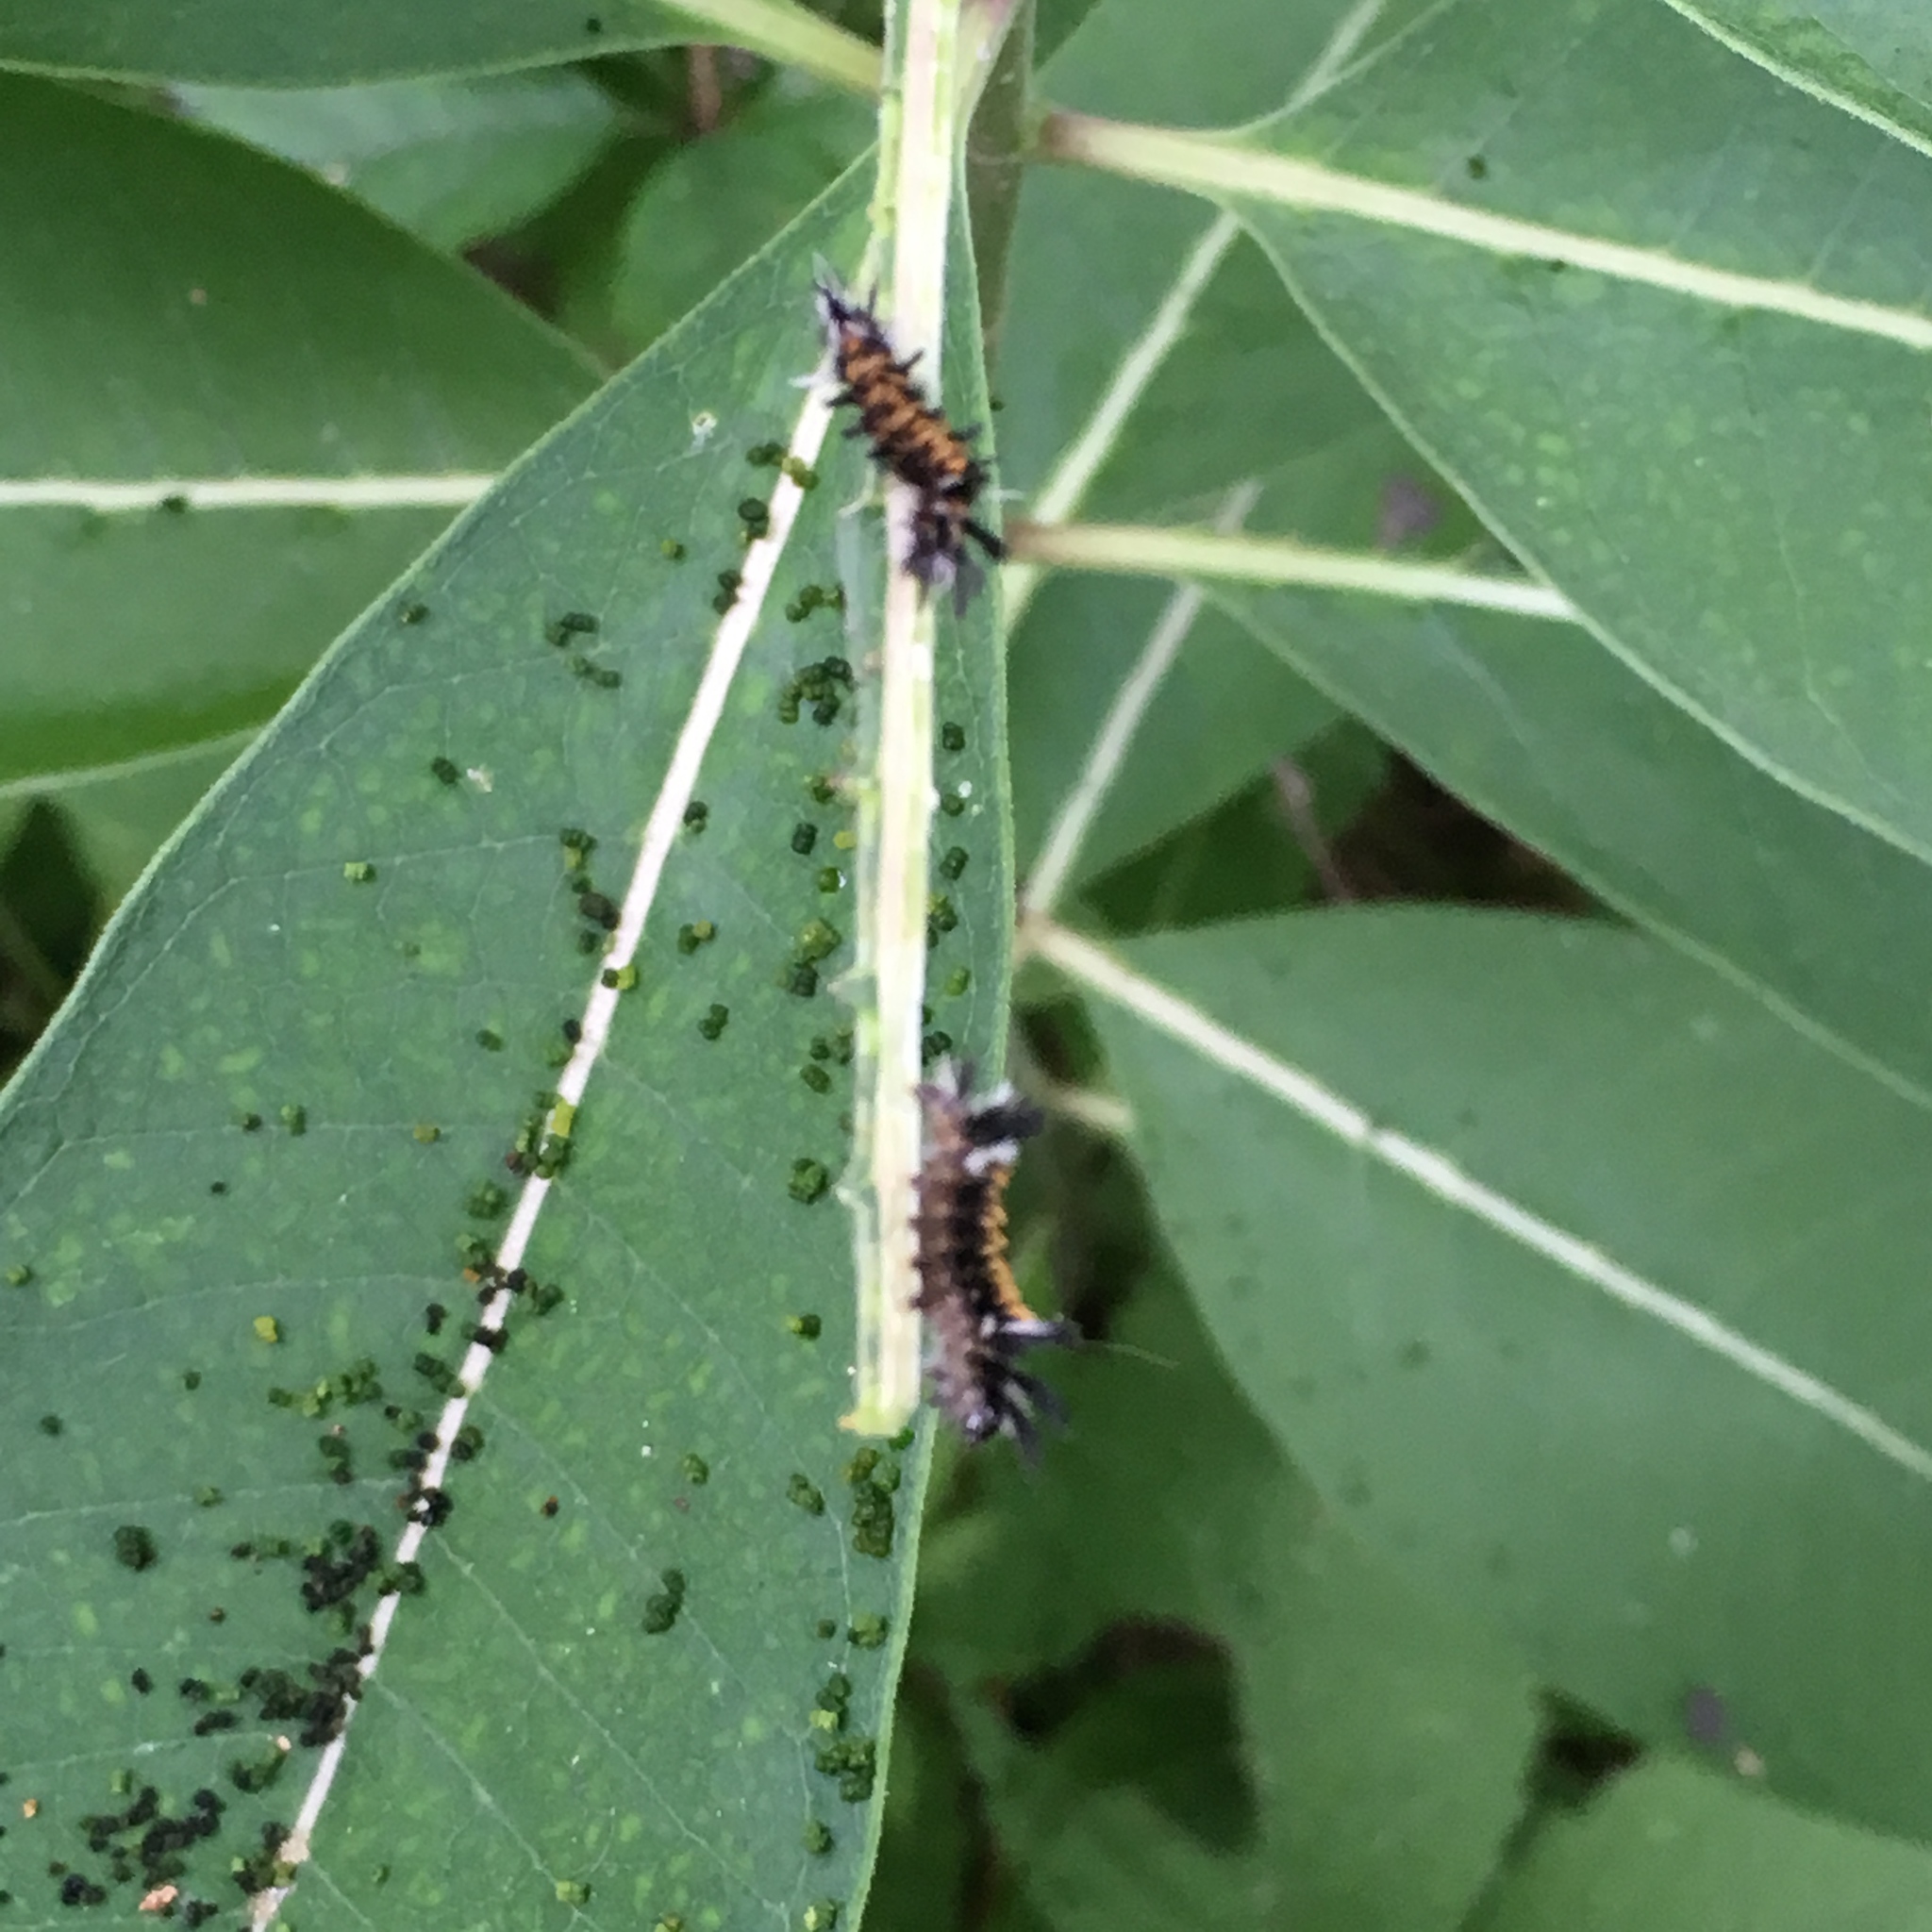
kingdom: Plantae
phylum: Tracheophyta
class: Magnoliopsida
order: Gentianales
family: Apocynaceae
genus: Asclepias
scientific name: Asclepias syriaca
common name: Common milkweed
